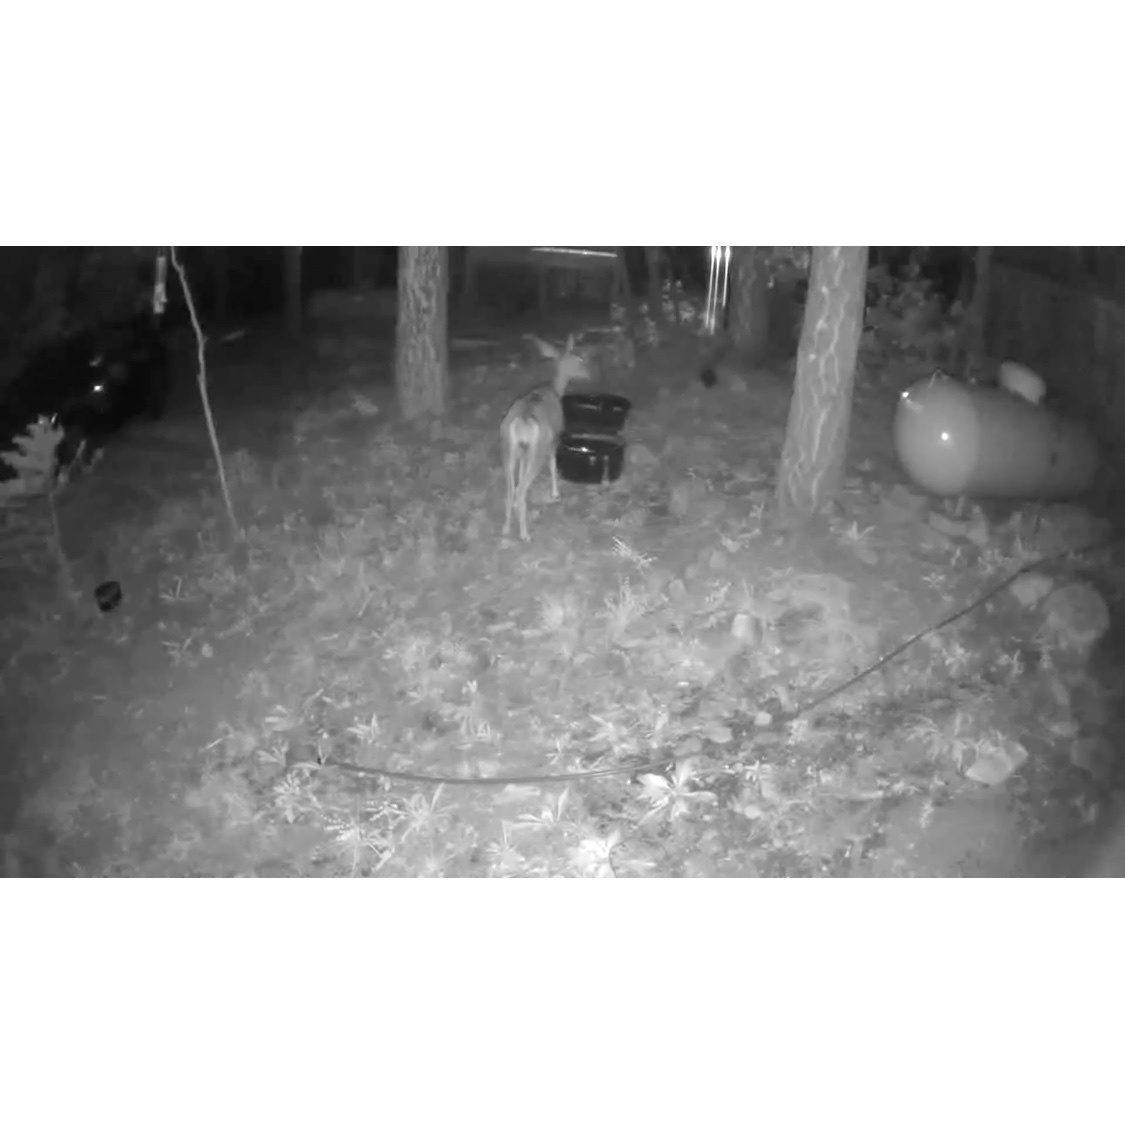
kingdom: Animalia
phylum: Chordata
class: Mammalia
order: Artiodactyla
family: Cervidae
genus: Odocoileus
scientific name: Odocoileus hemionus
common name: Mule deer
